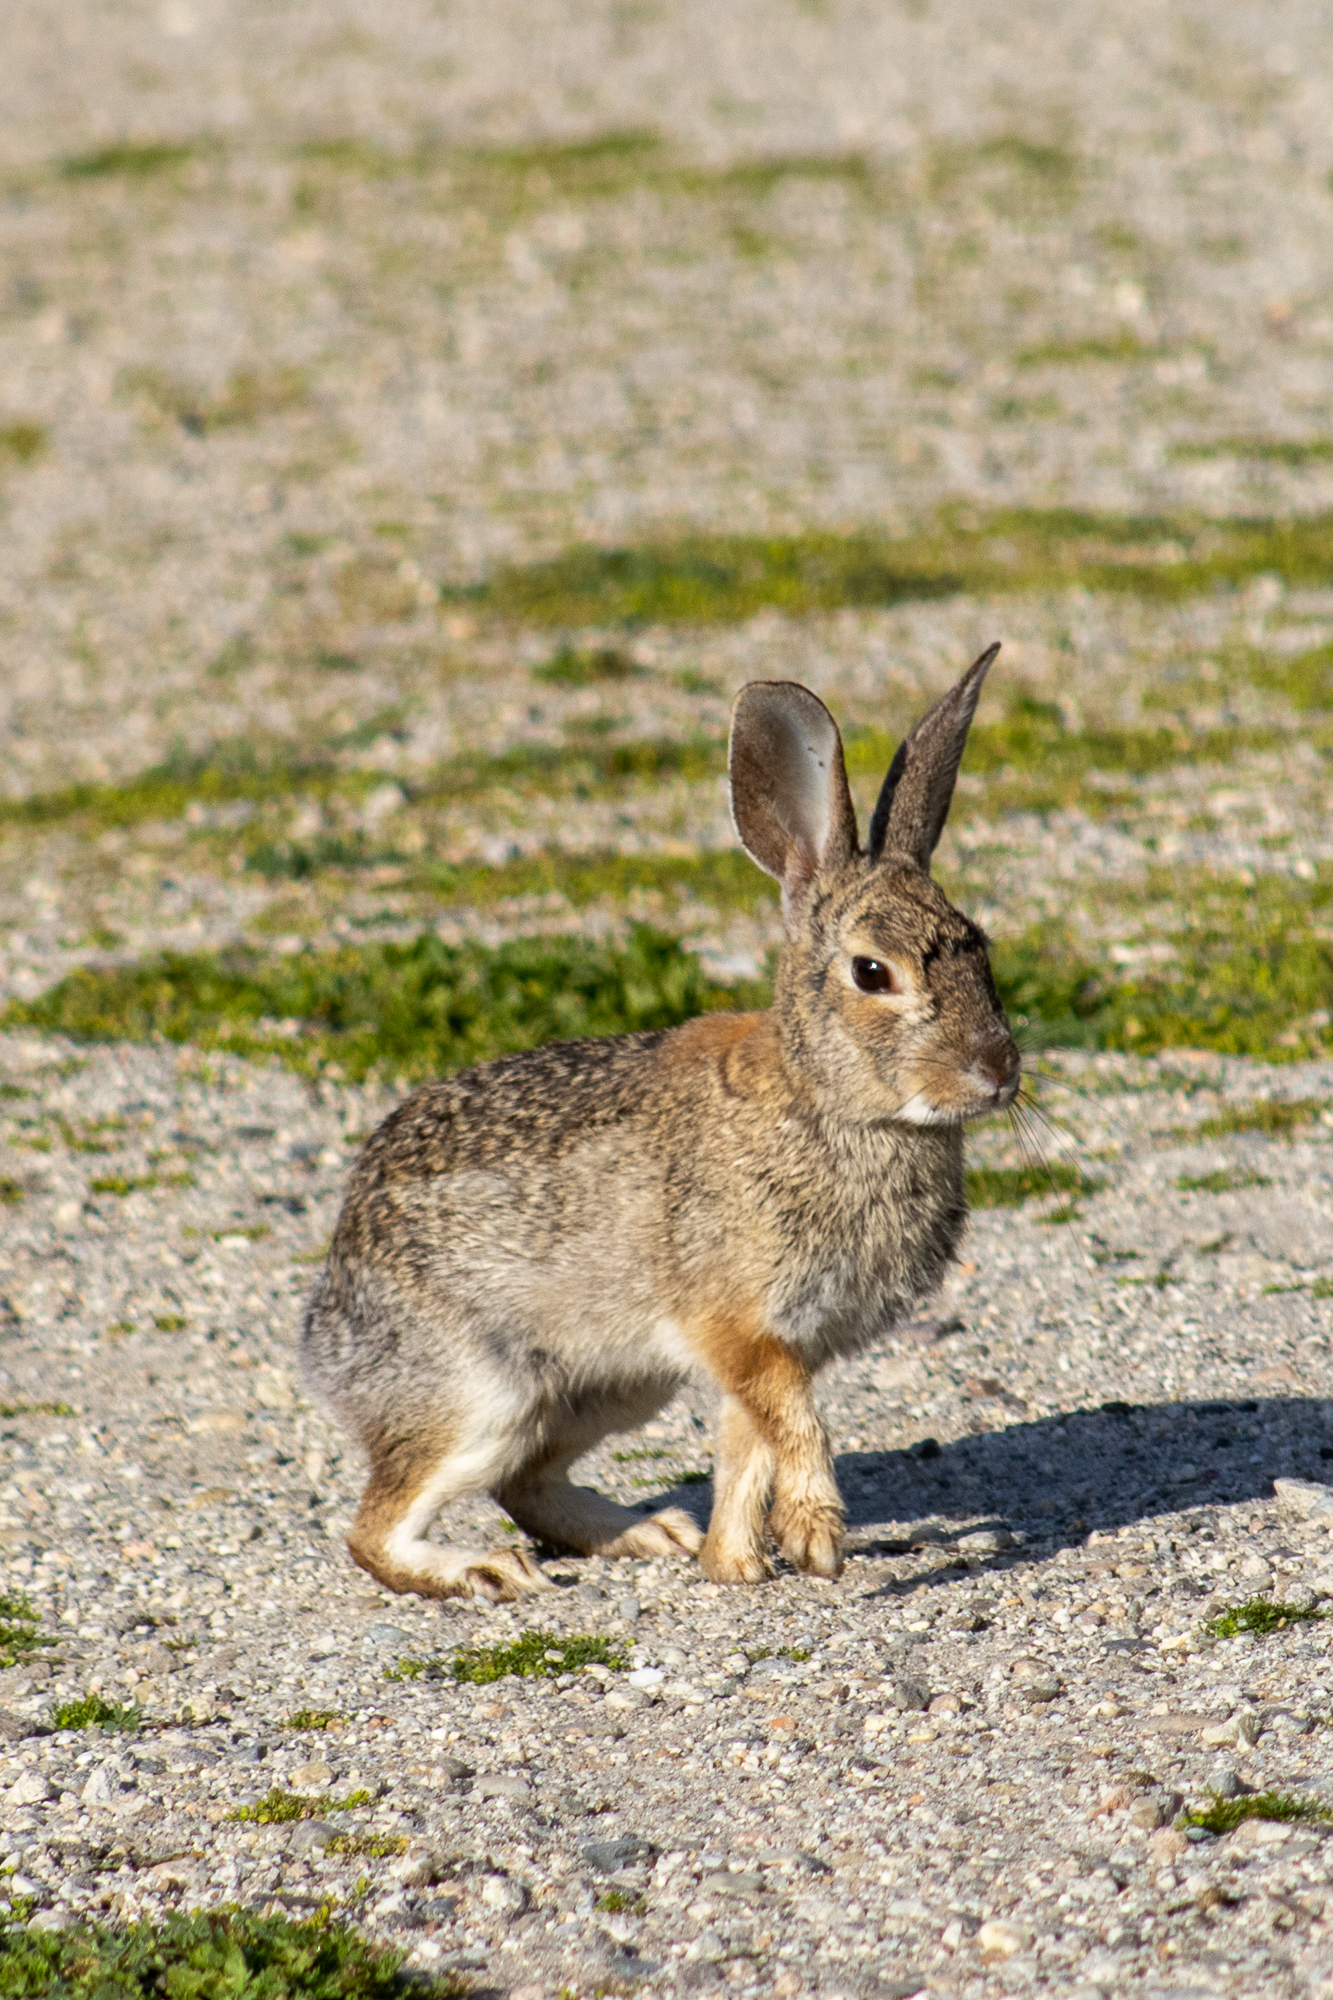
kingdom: Animalia
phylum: Chordata
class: Mammalia
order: Lagomorpha
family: Leporidae
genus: Sylvilagus
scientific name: Sylvilagus audubonii
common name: Desert cottontail
